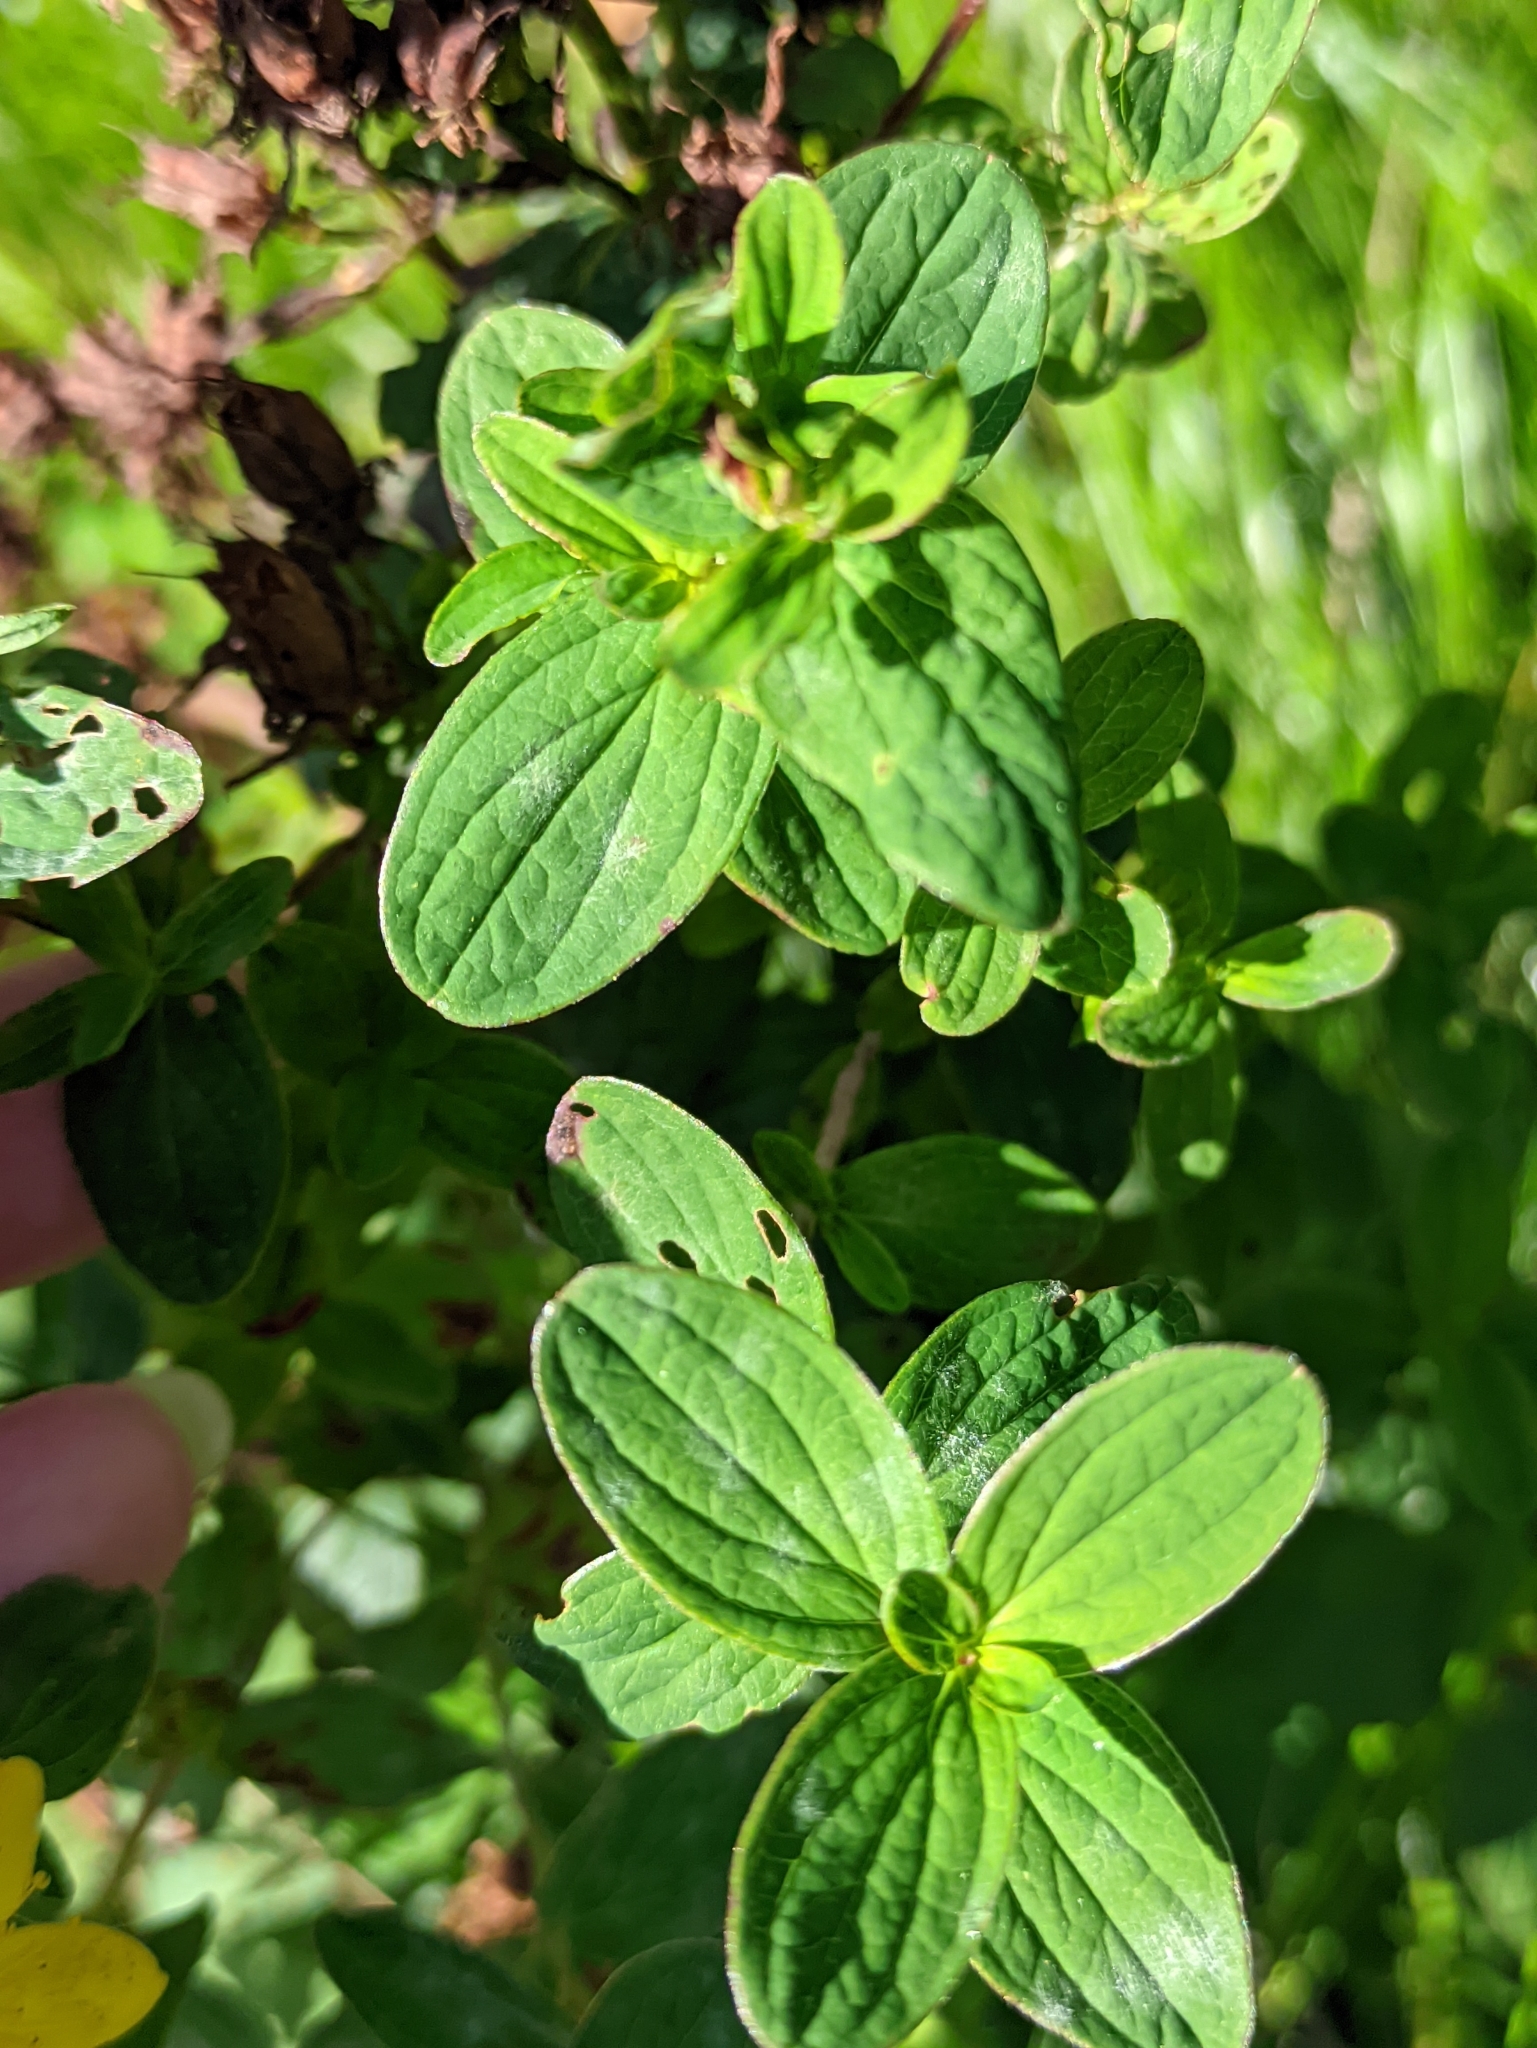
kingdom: Plantae
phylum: Tracheophyta
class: Magnoliopsida
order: Malpighiales
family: Hypericaceae
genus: Hypericum
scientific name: Hypericum maculatum
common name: Imperforate st. john's-wort
